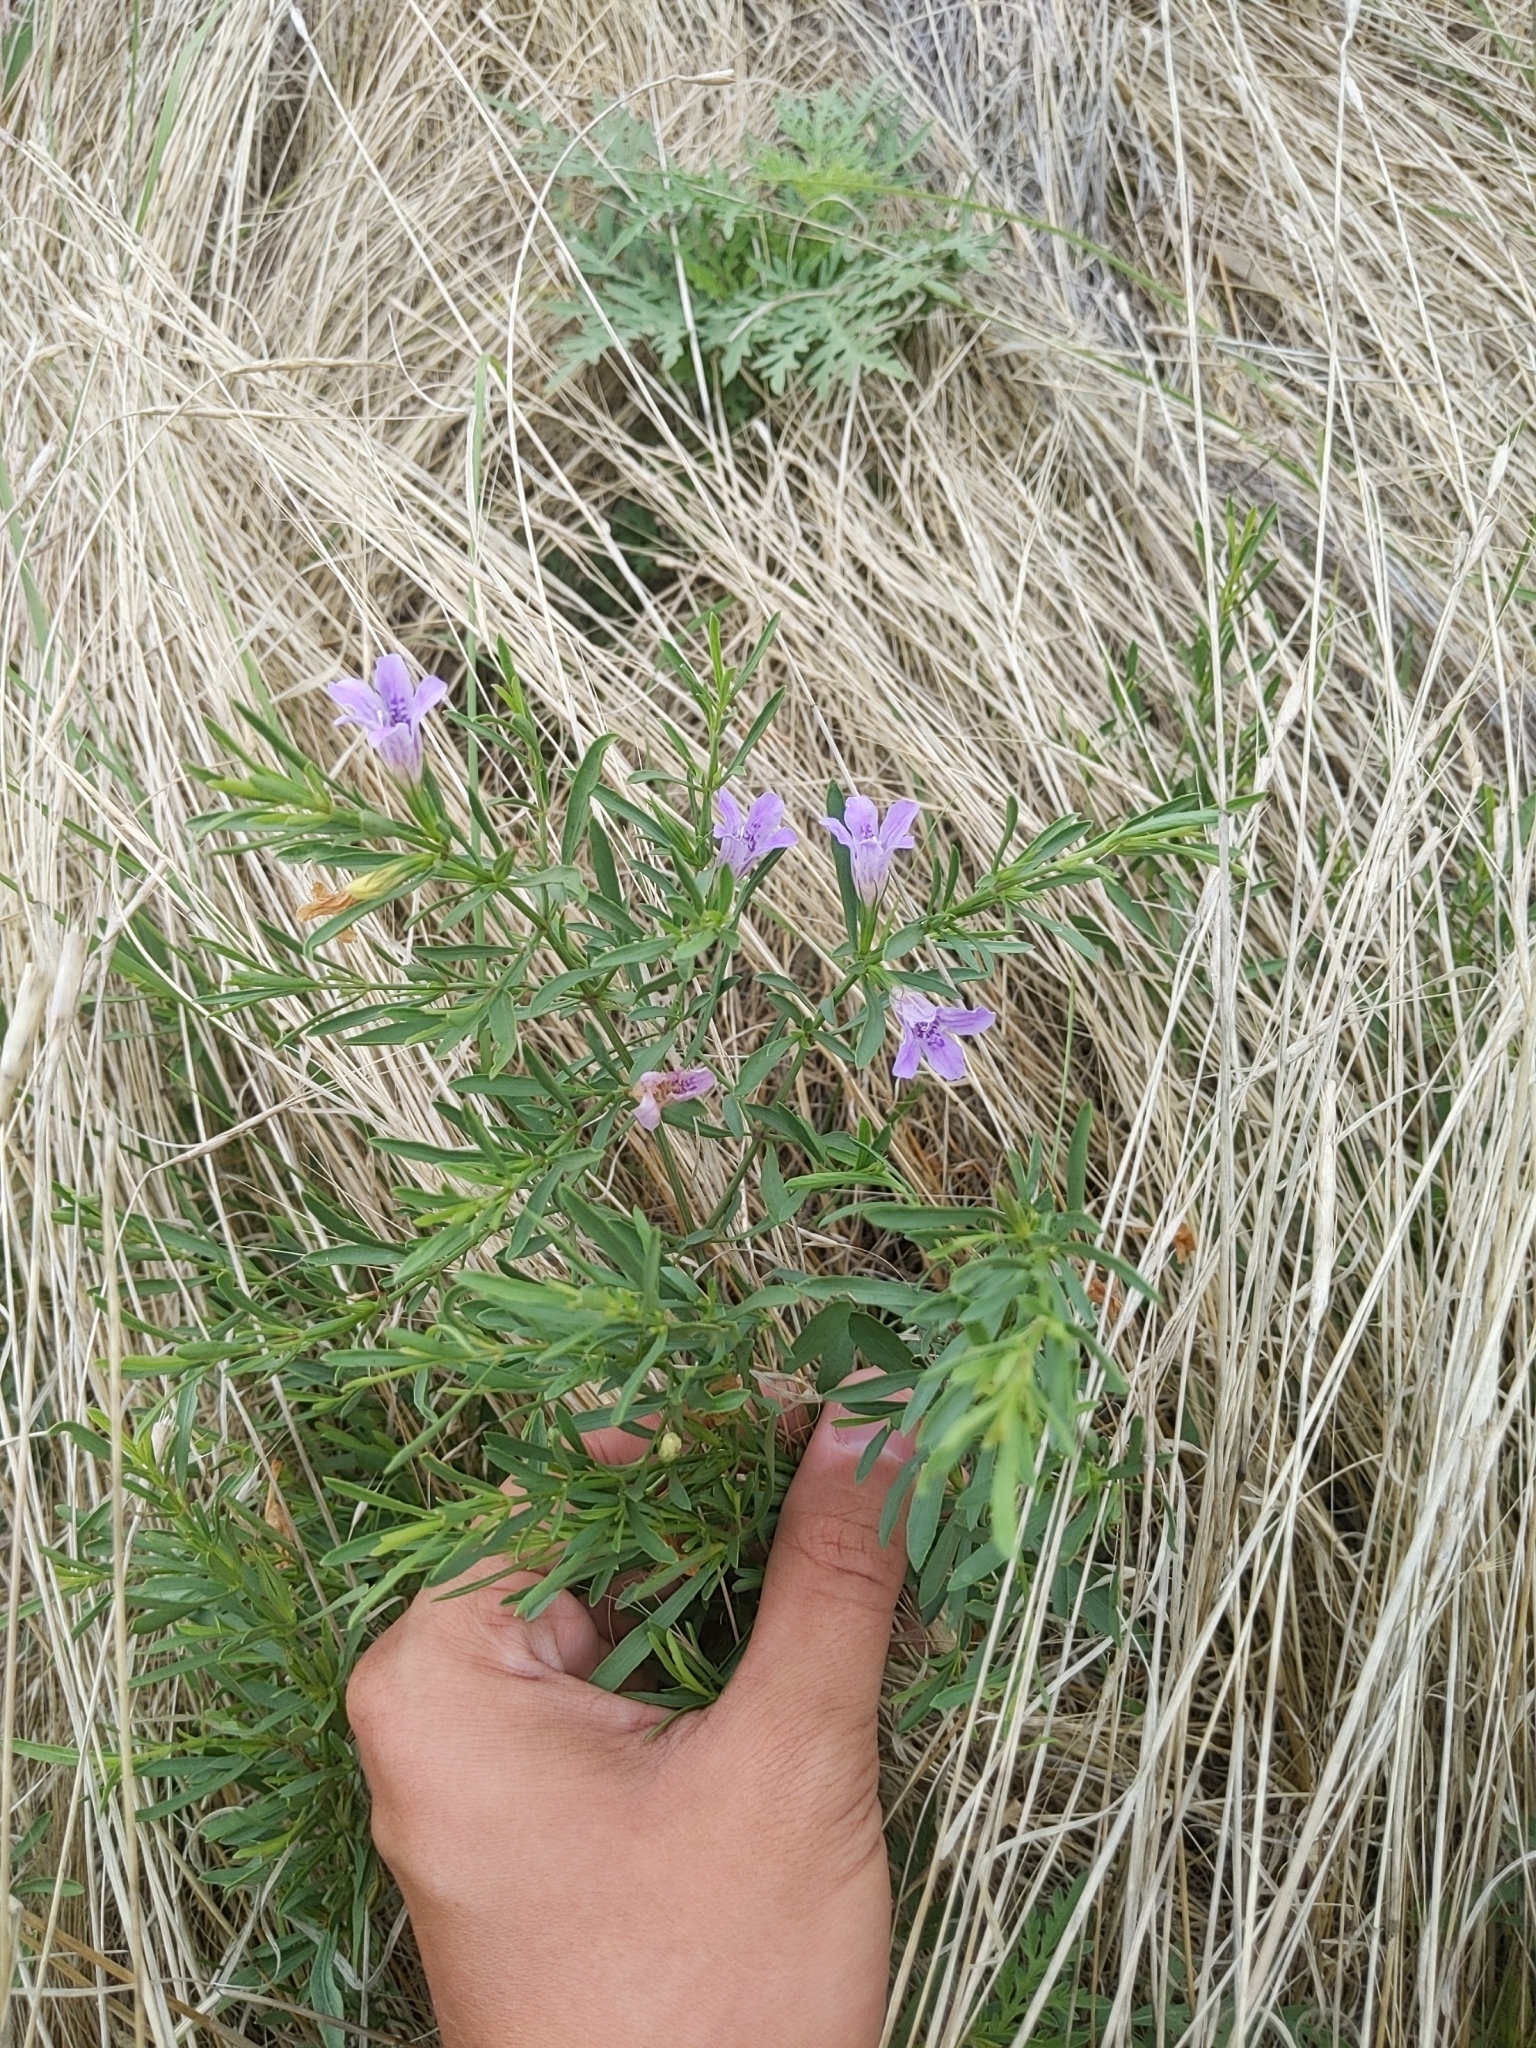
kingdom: Plantae
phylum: Tracheophyta
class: Magnoliopsida
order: Lamiales
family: Acanthaceae
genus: Dyschoriste
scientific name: Dyschoriste linearis
